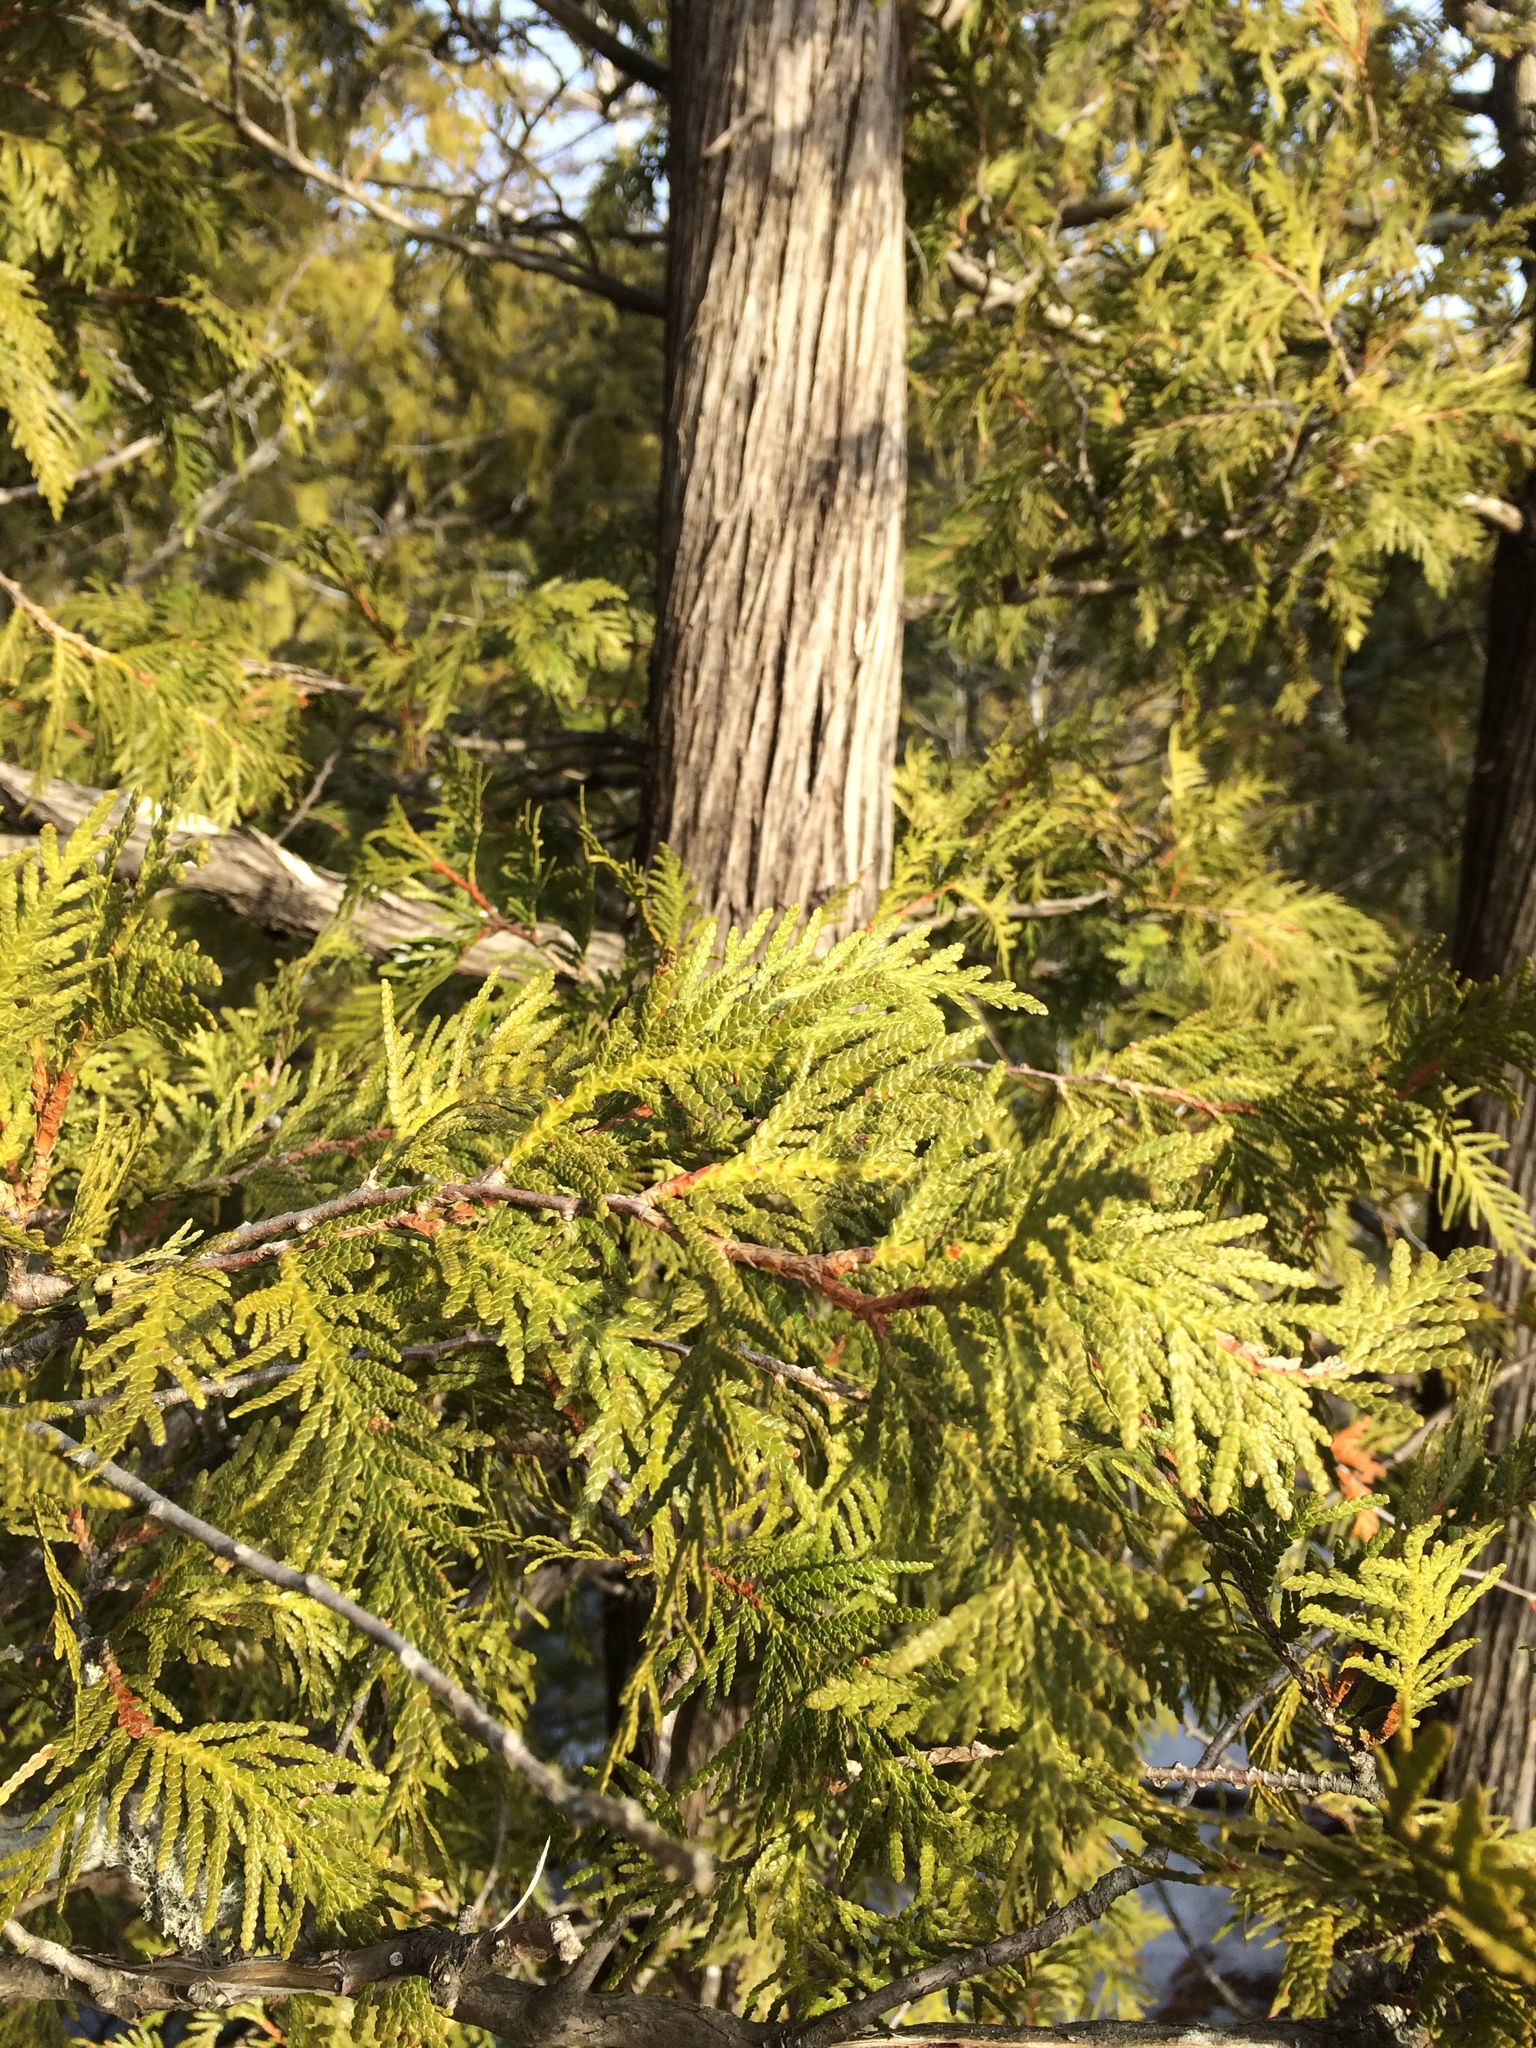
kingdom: Plantae
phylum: Tracheophyta
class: Pinopsida
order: Pinales
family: Cupressaceae
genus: Thuja
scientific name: Thuja occidentalis
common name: Northern white-cedar
